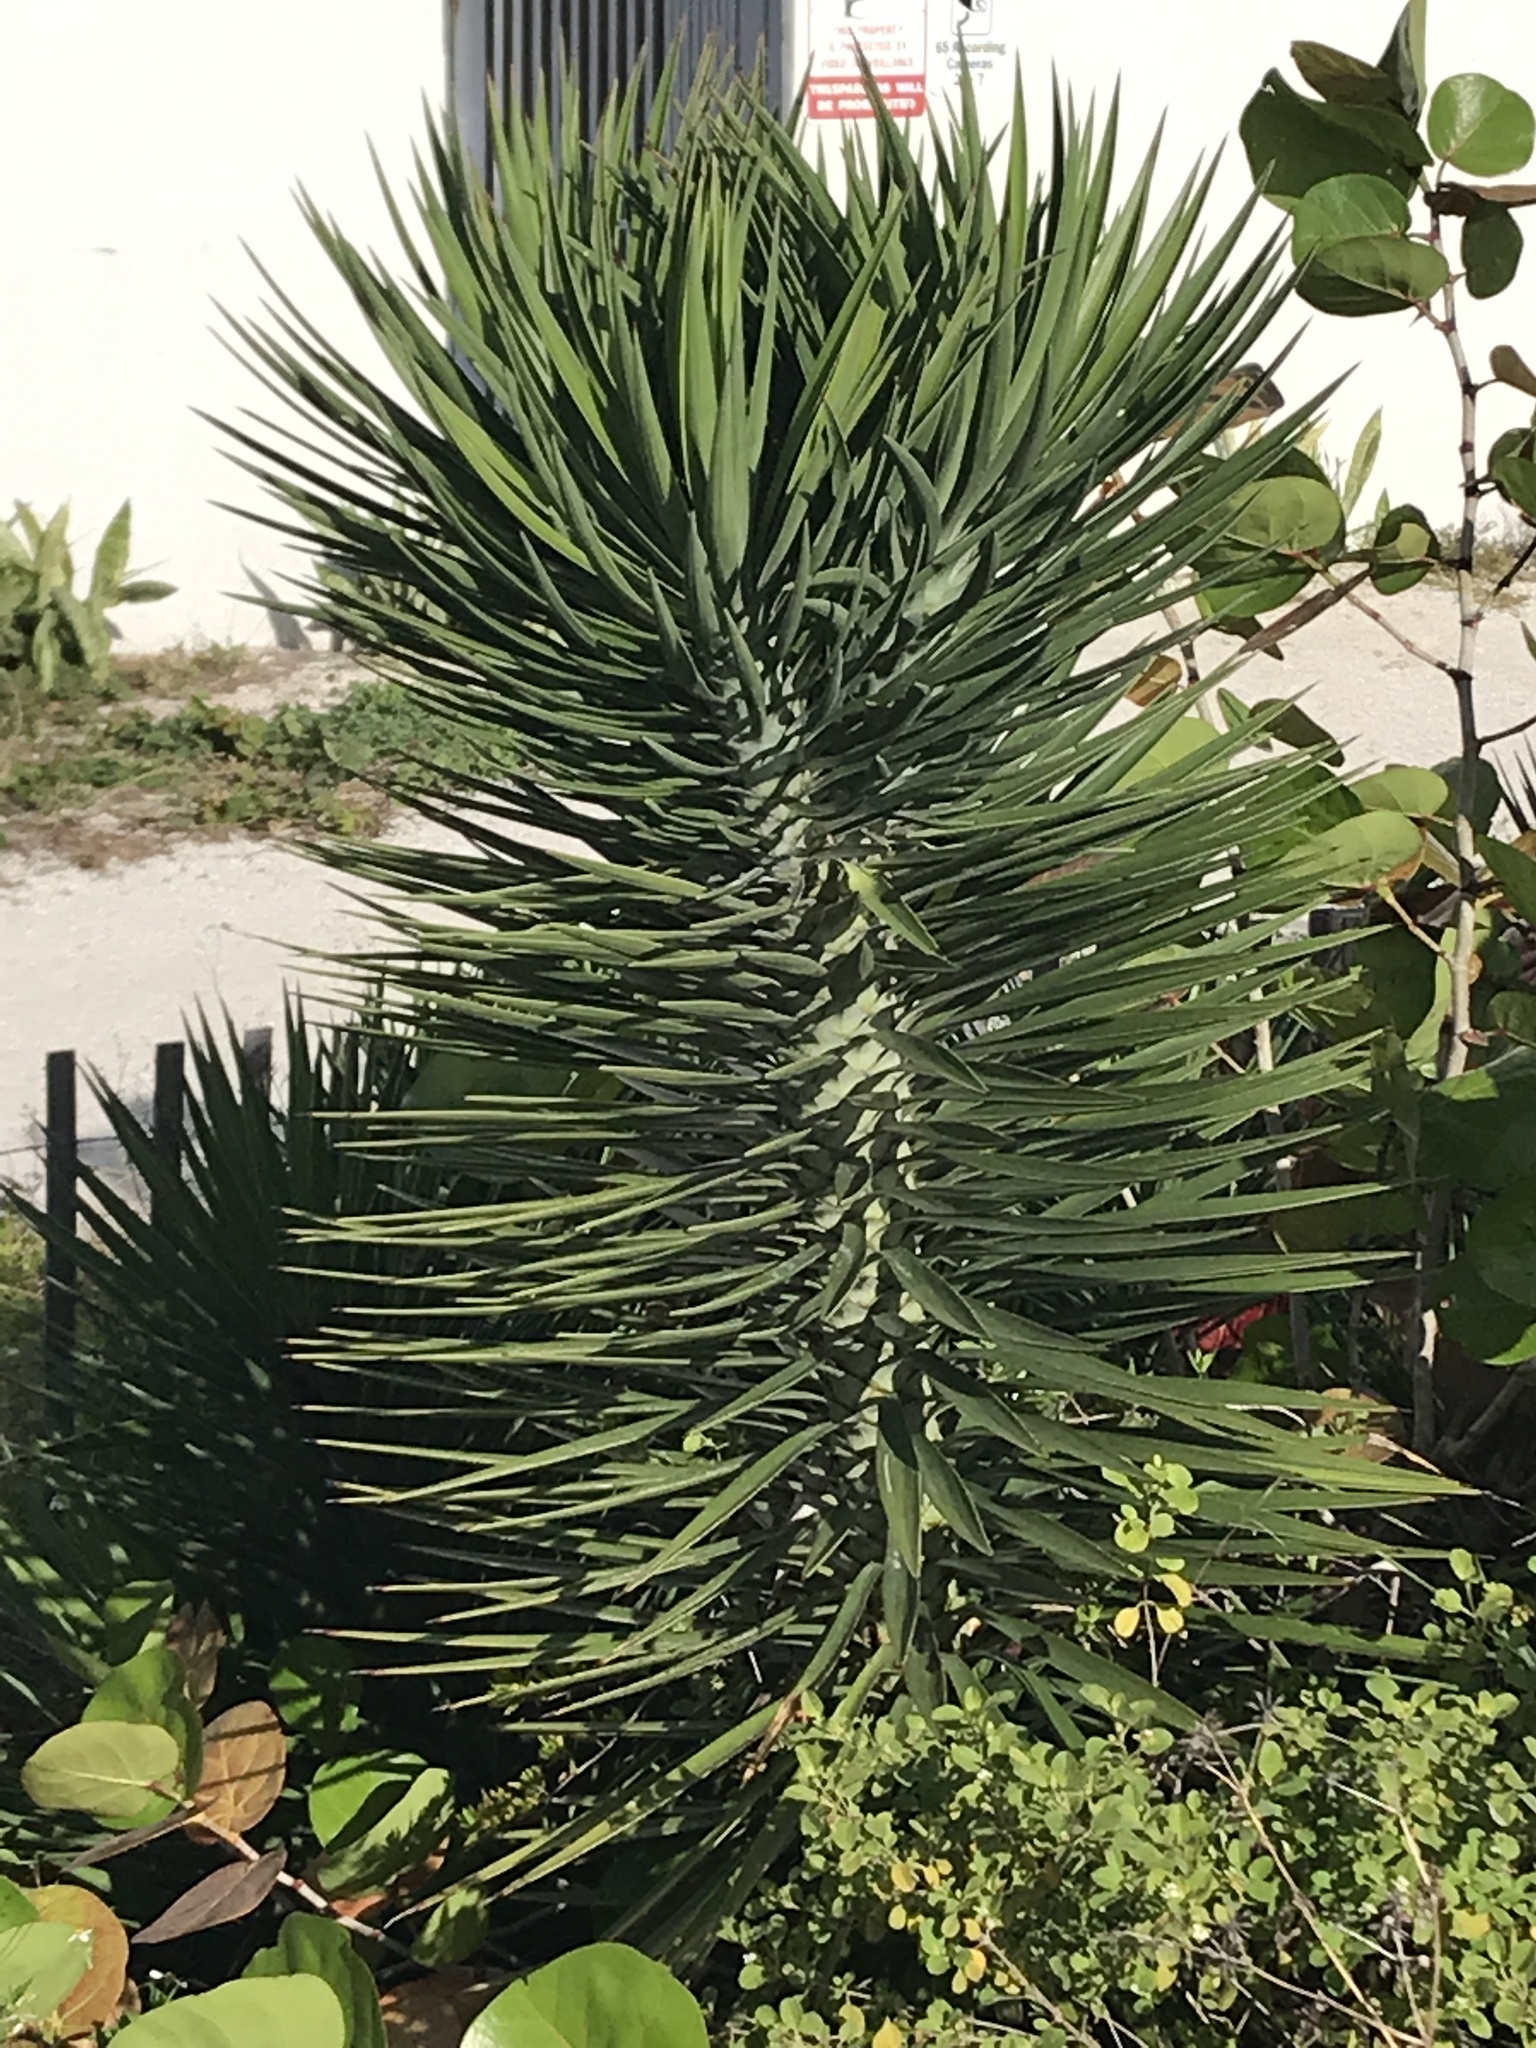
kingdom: Plantae
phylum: Tracheophyta
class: Liliopsida
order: Asparagales
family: Asparagaceae
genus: Yucca
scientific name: Yucca aloifolia
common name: Aloe yucca
